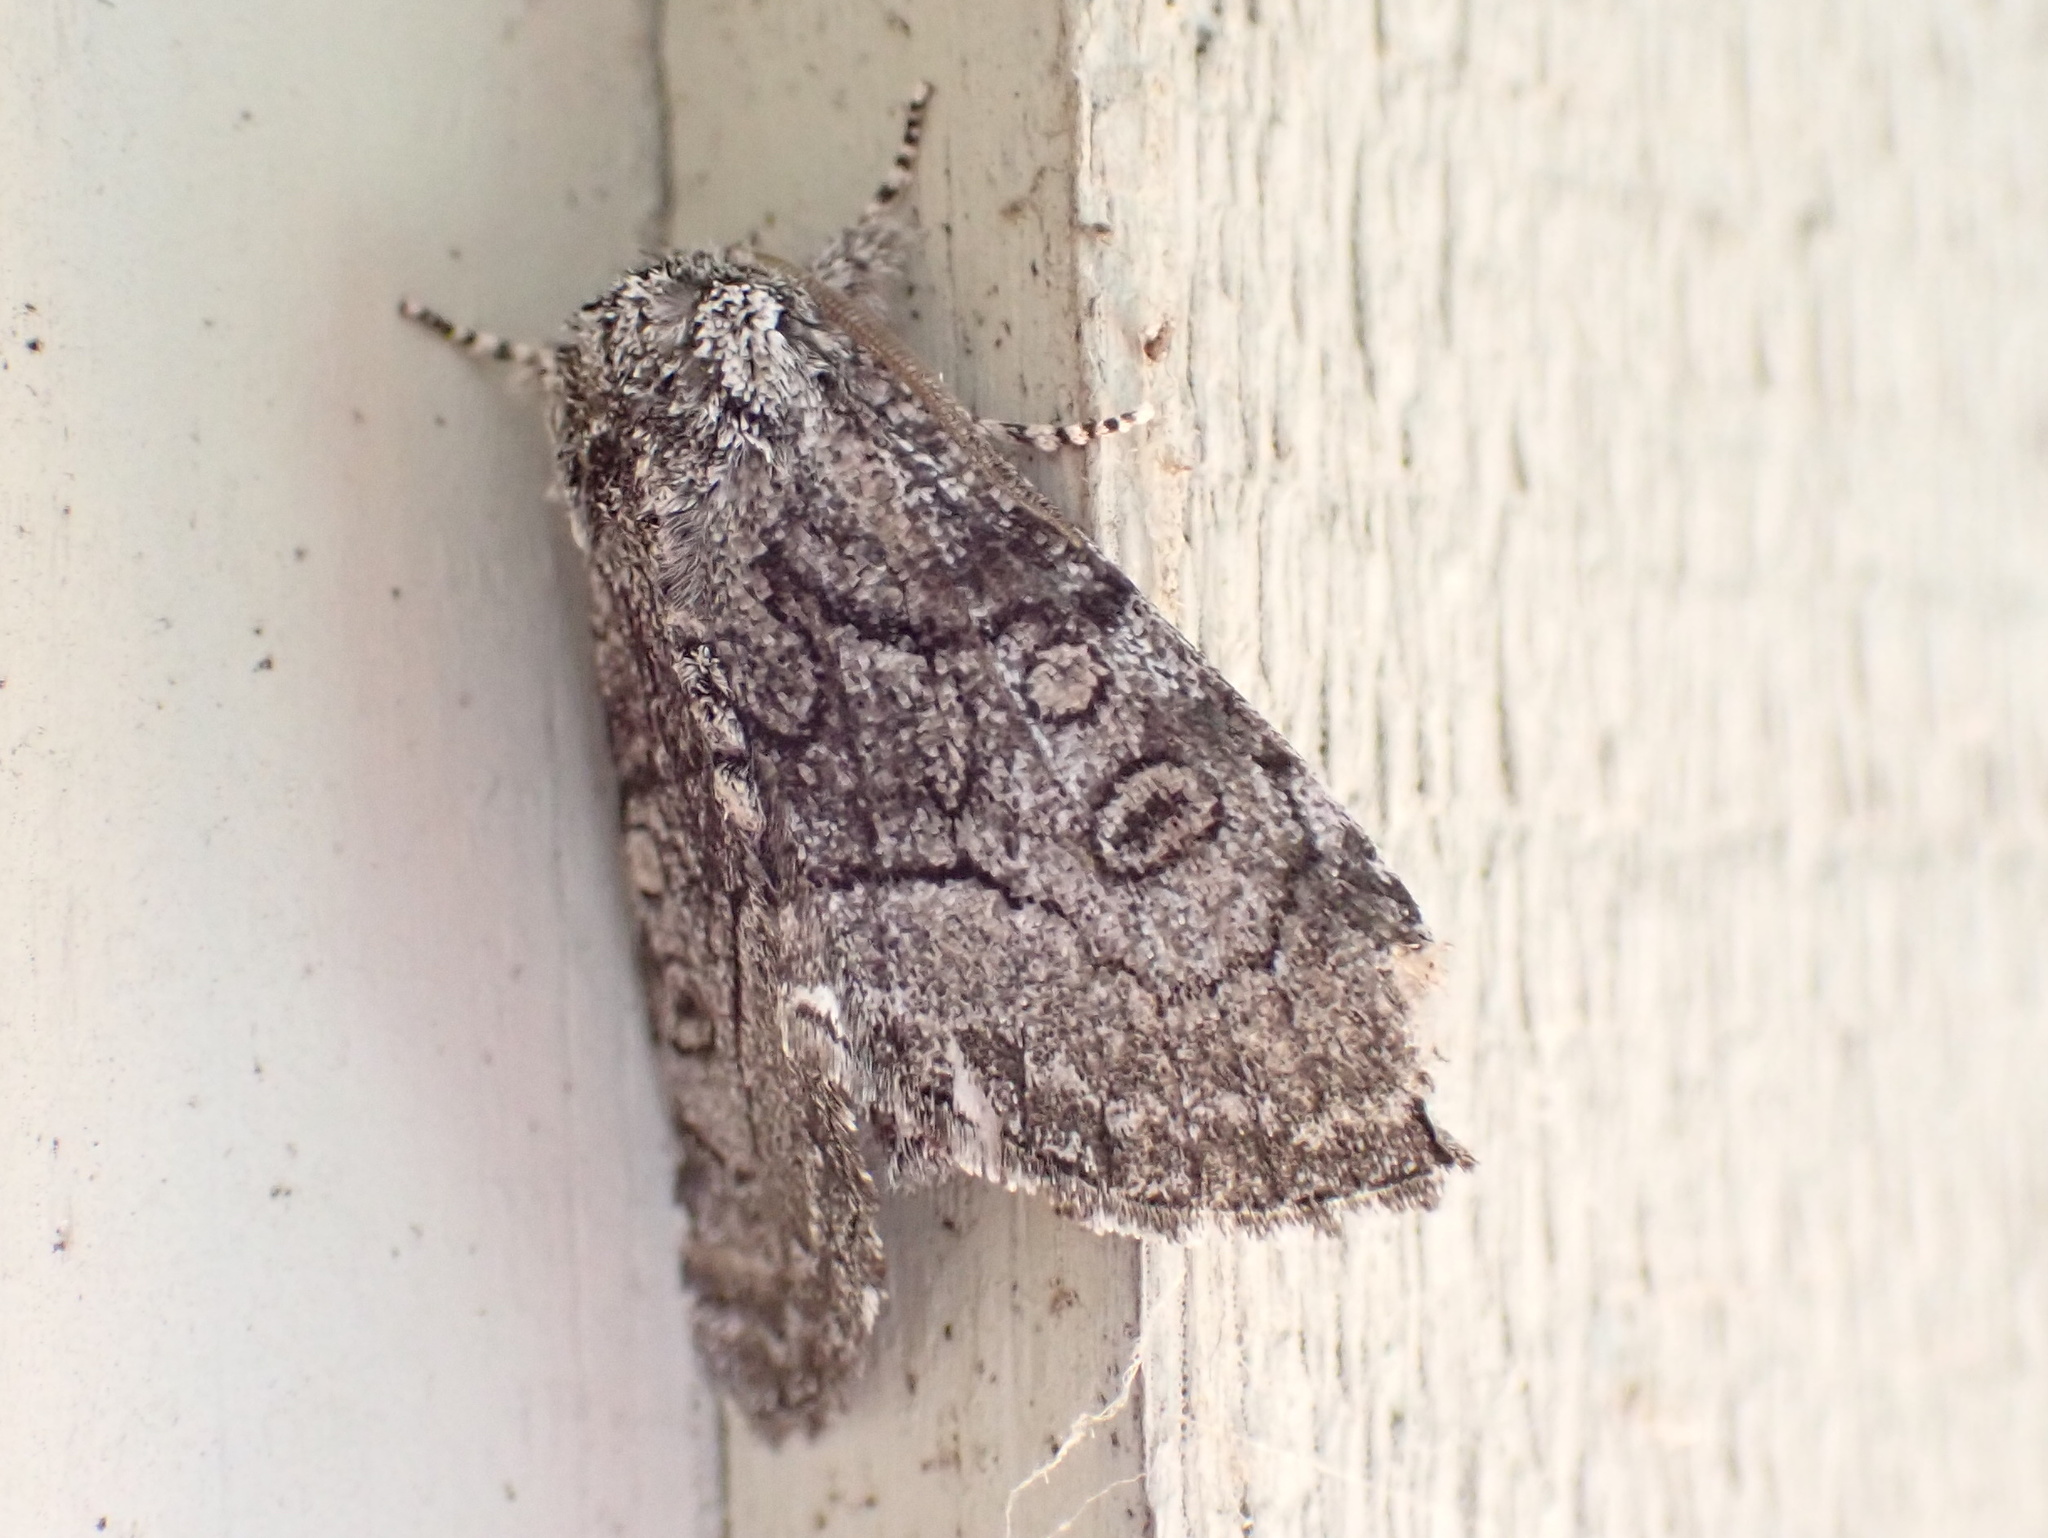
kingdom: Animalia
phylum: Arthropoda
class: Insecta
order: Lepidoptera
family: Noctuidae
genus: Raphia
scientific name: Raphia frater
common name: Brother
